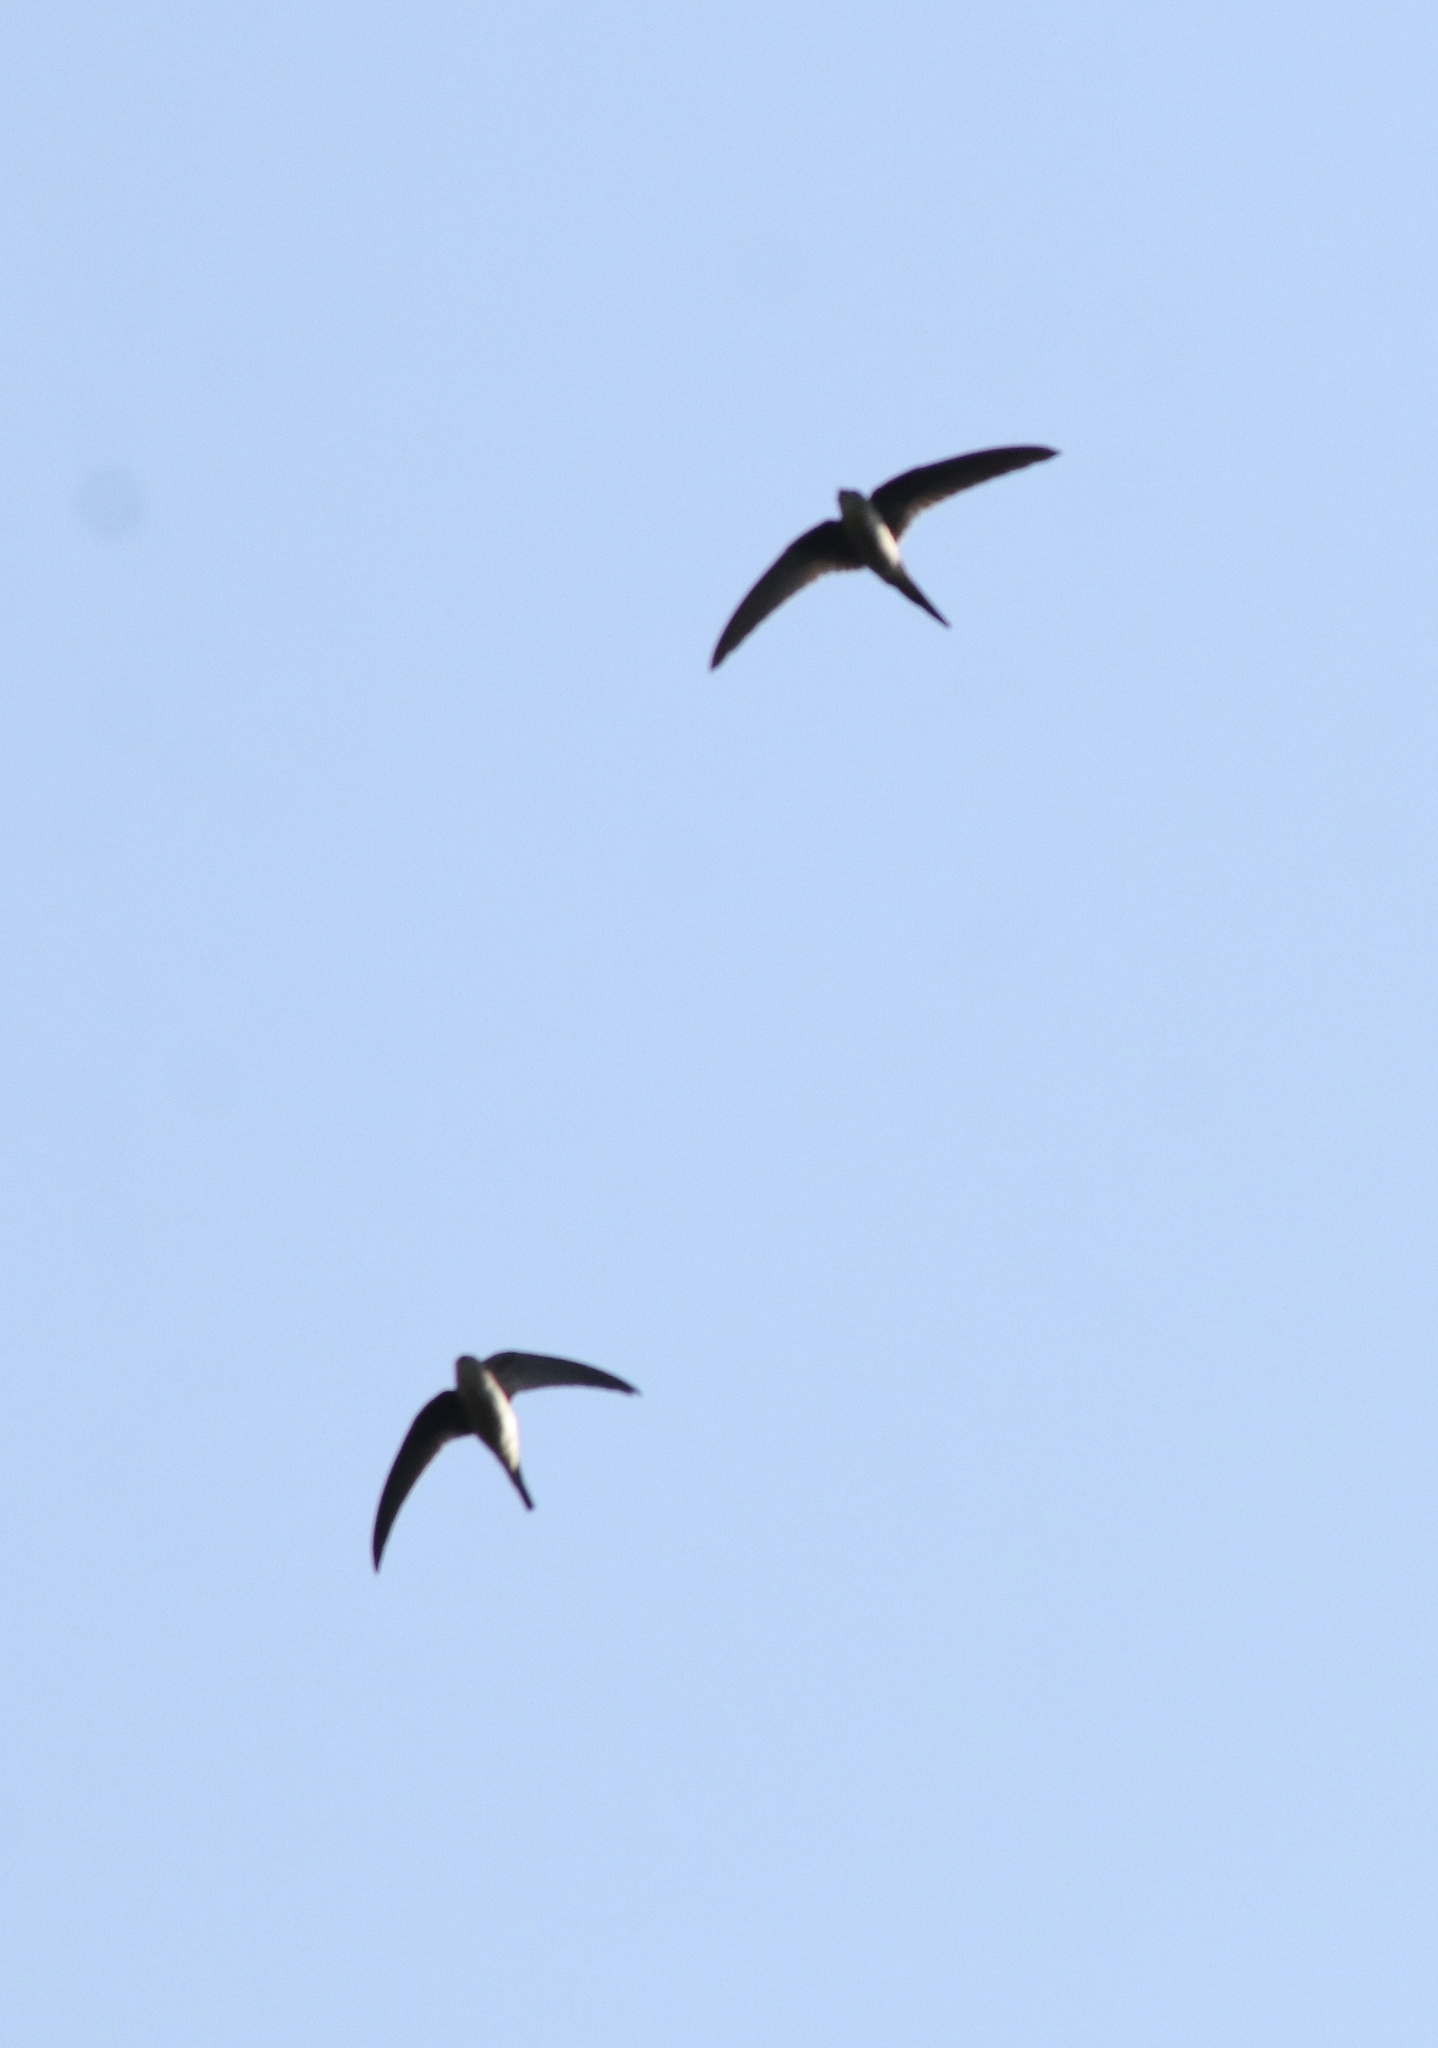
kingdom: Animalia
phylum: Chordata
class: Aves
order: Apodiformes
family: Apodidae
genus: Cypsiurus
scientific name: Cypsiurus balasiensis
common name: Asian palm swift
